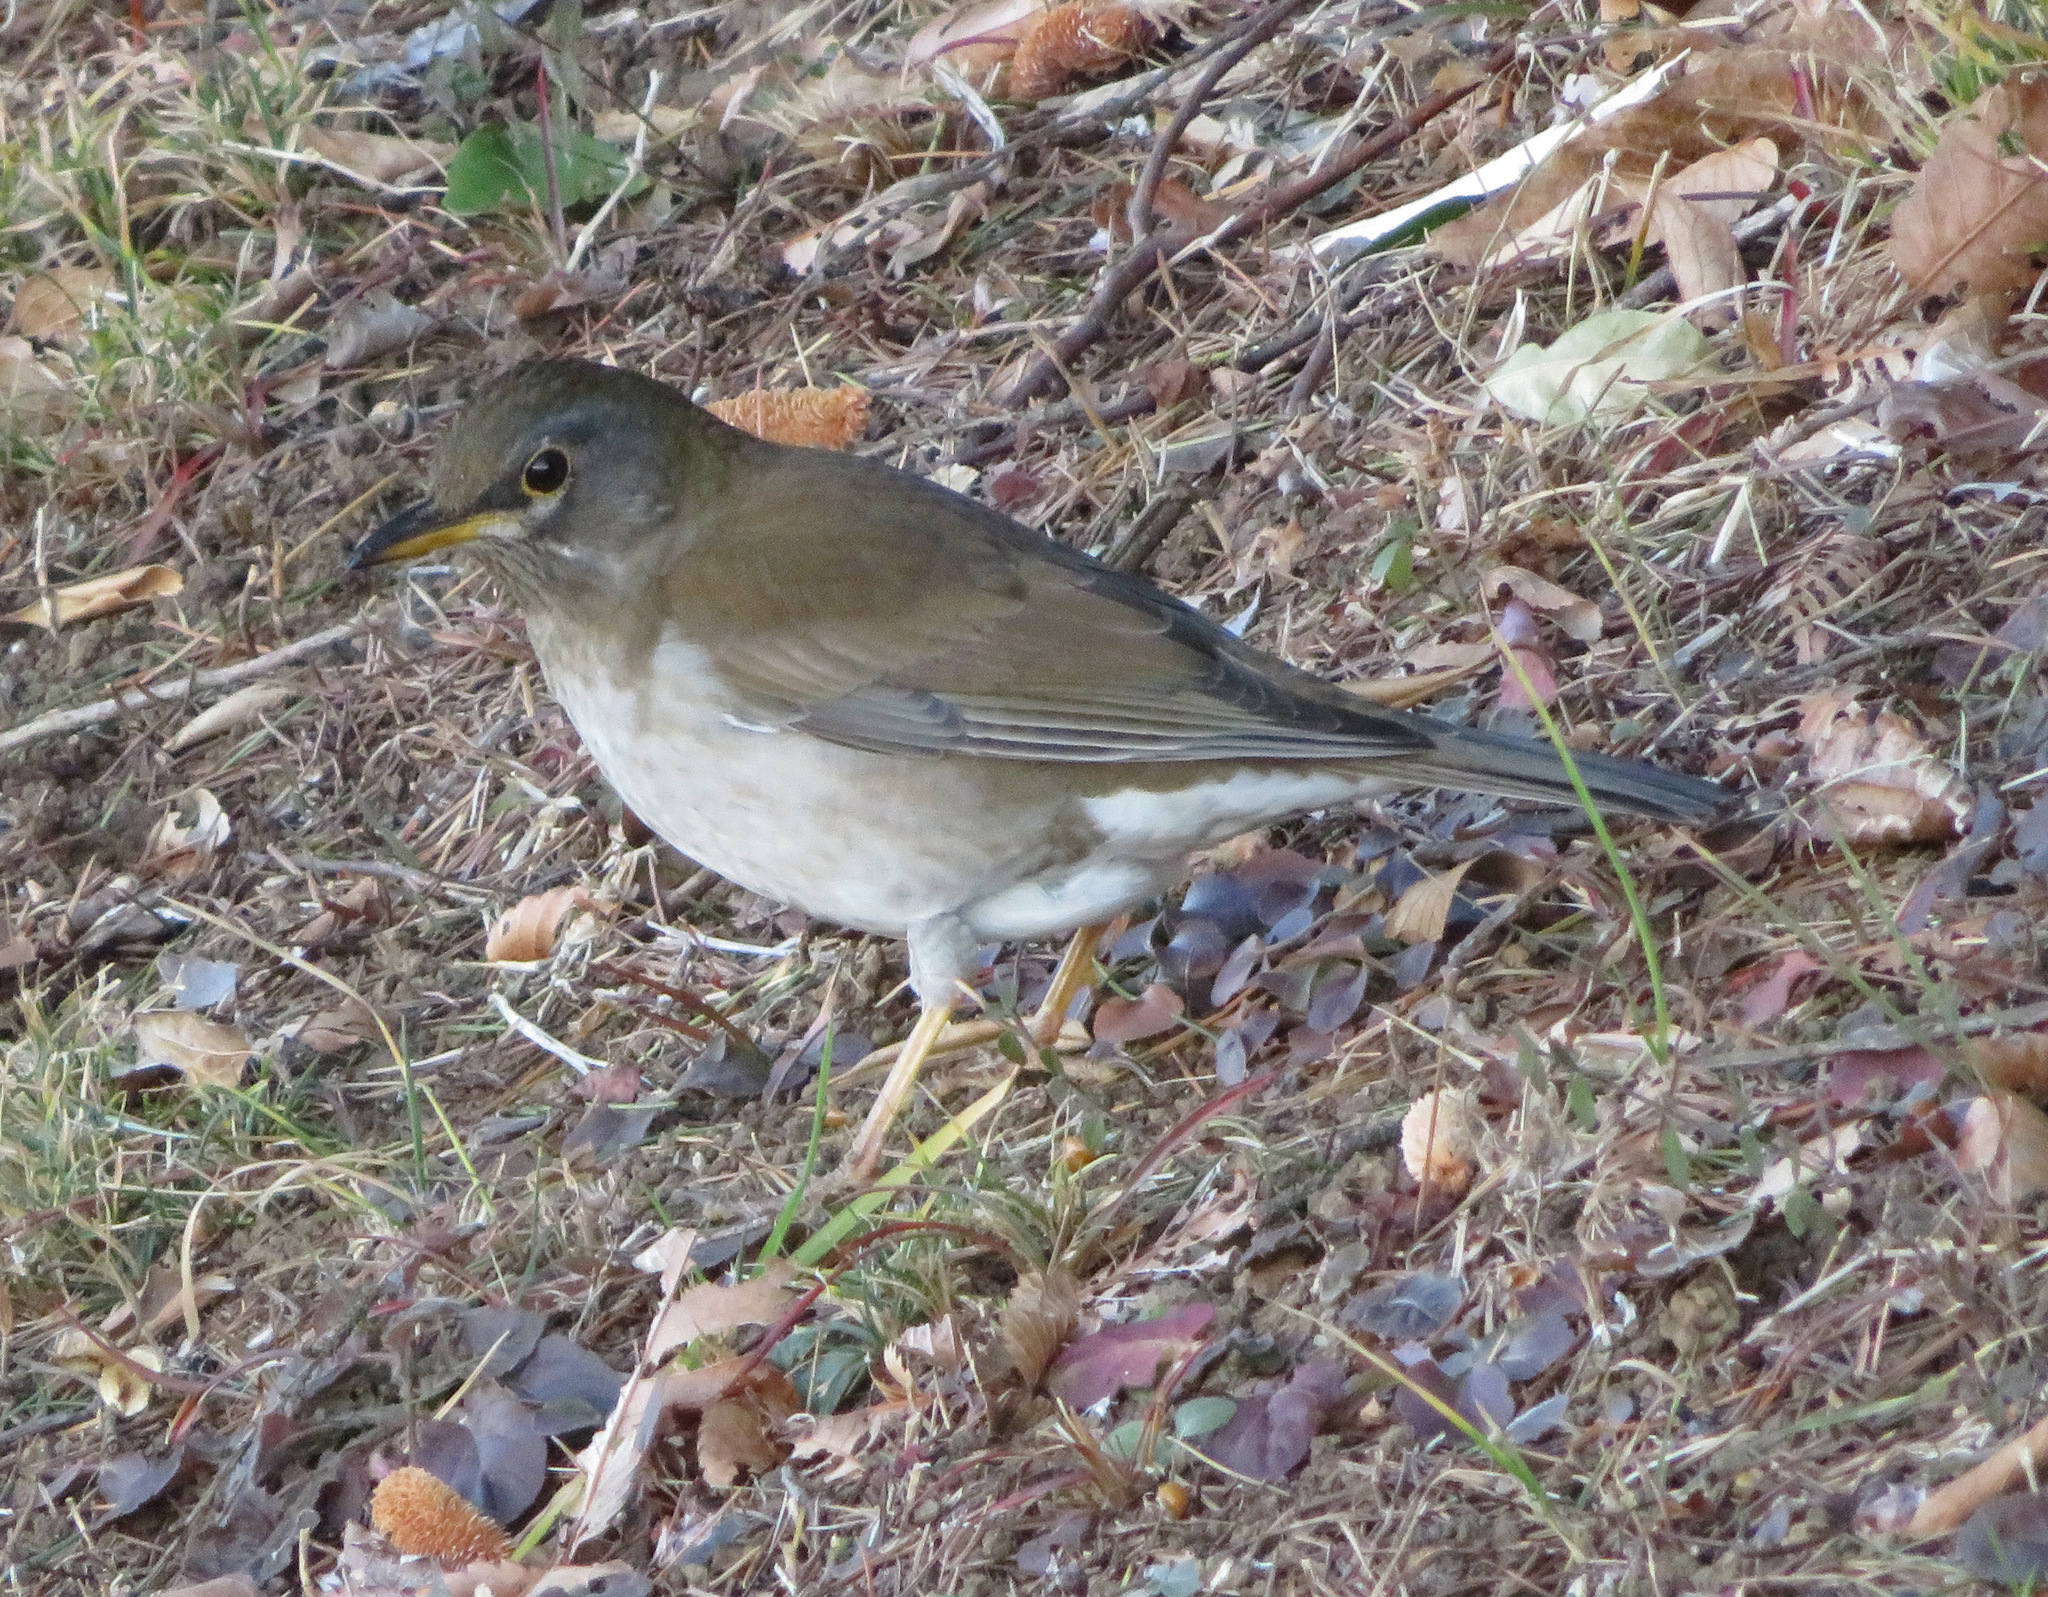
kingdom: Animalia
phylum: Chordata
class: Aves
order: Passeriformes
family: Turdidae
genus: Turdus
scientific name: Turdus pallidus
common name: Pale thrush
